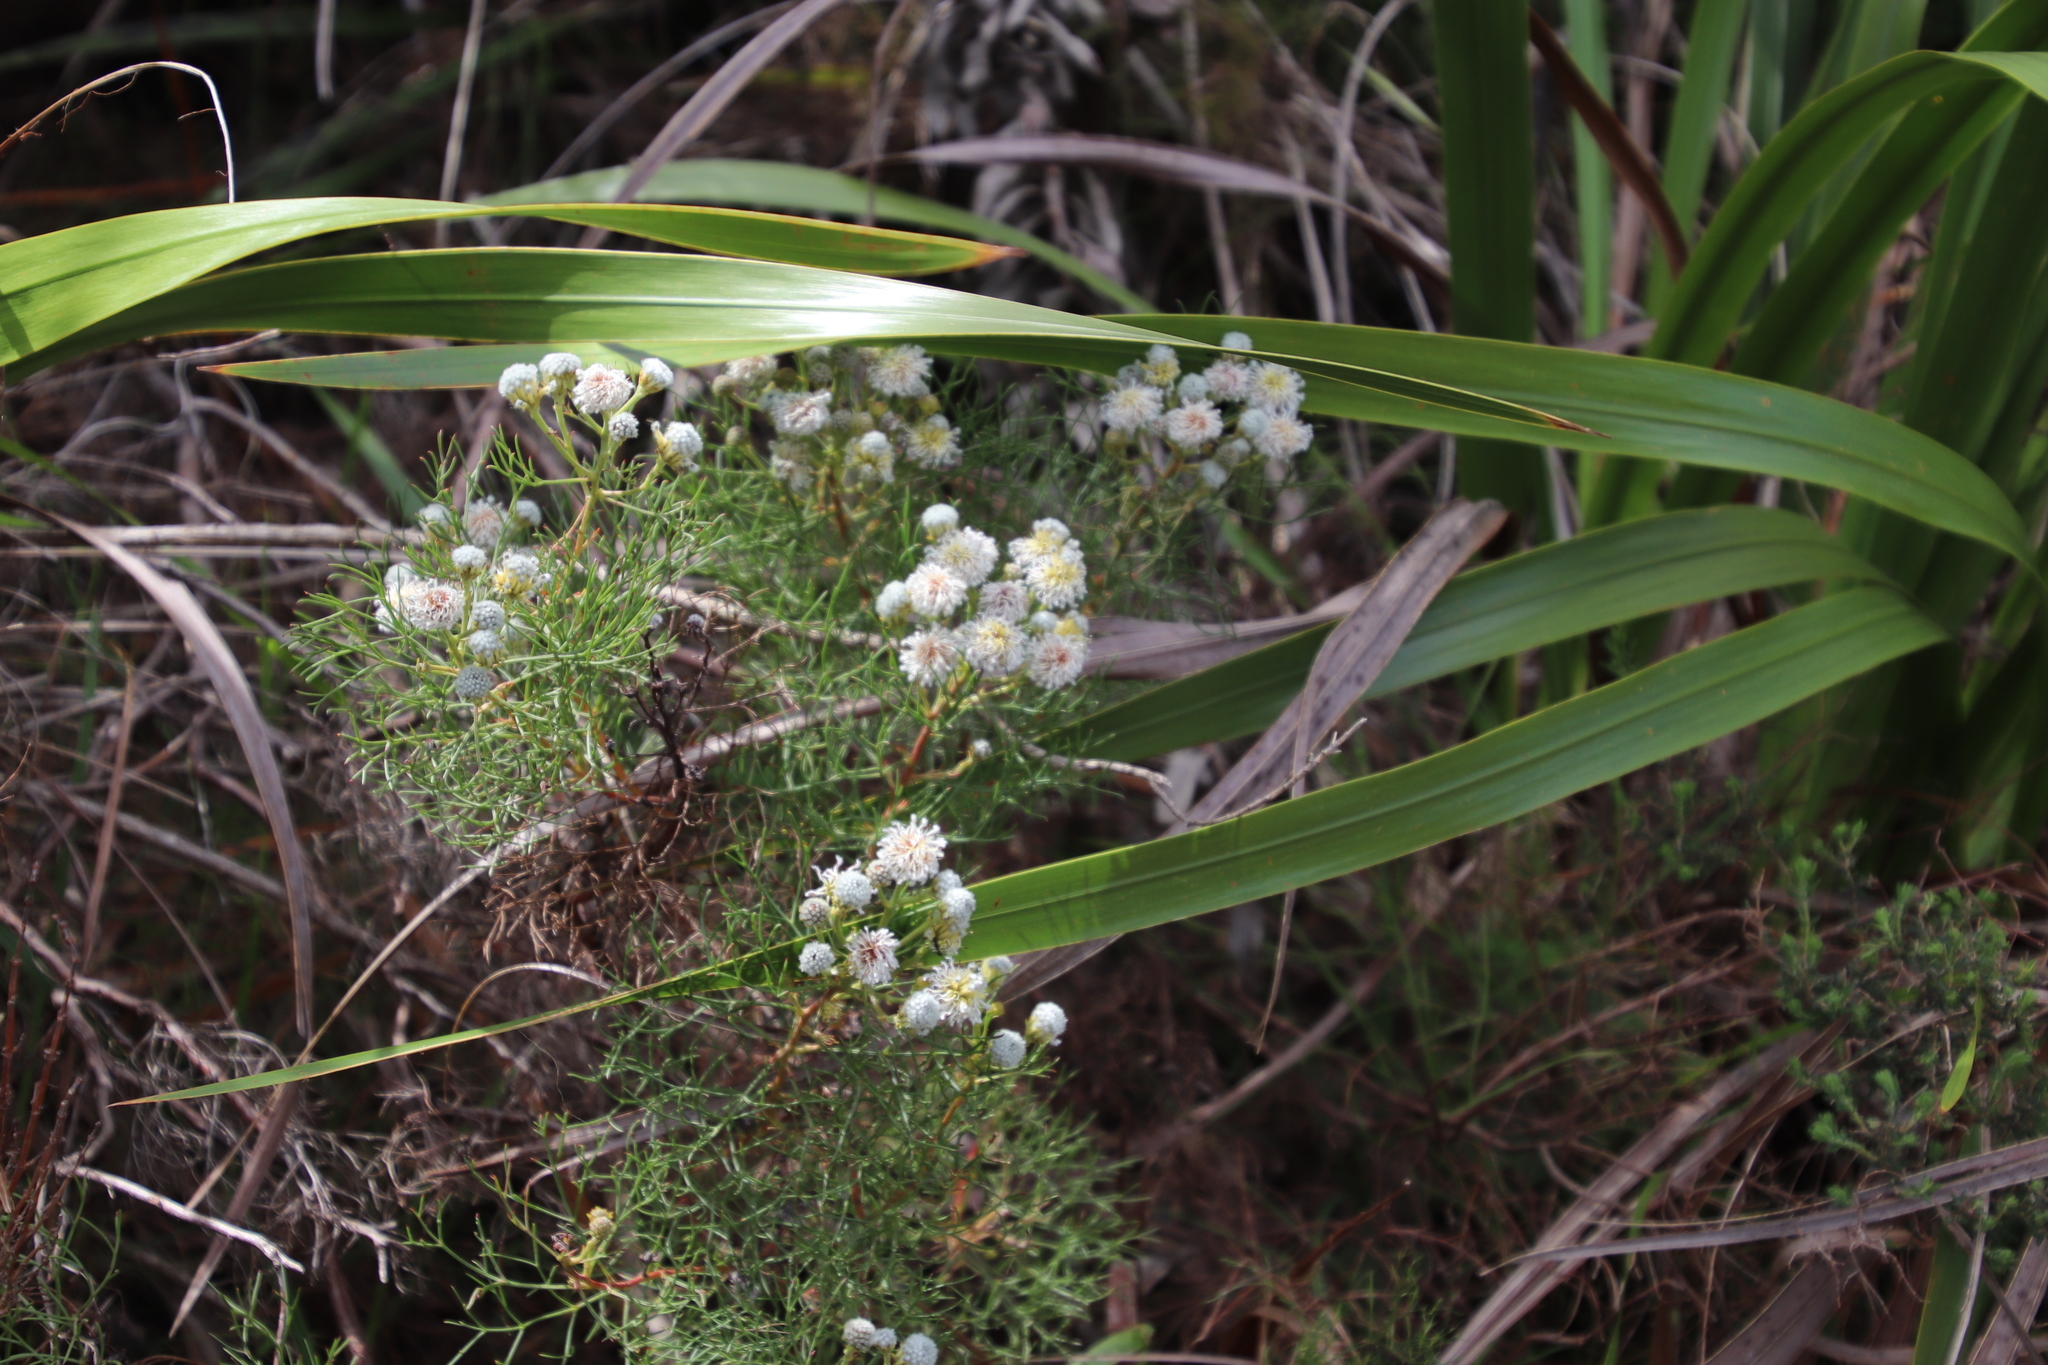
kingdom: Plantae
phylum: Tracheophyta
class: Magnoliopsida
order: Proteales
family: Proteaceae
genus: Serruria
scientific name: Serruria kraussii
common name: Snowball spiderhead
